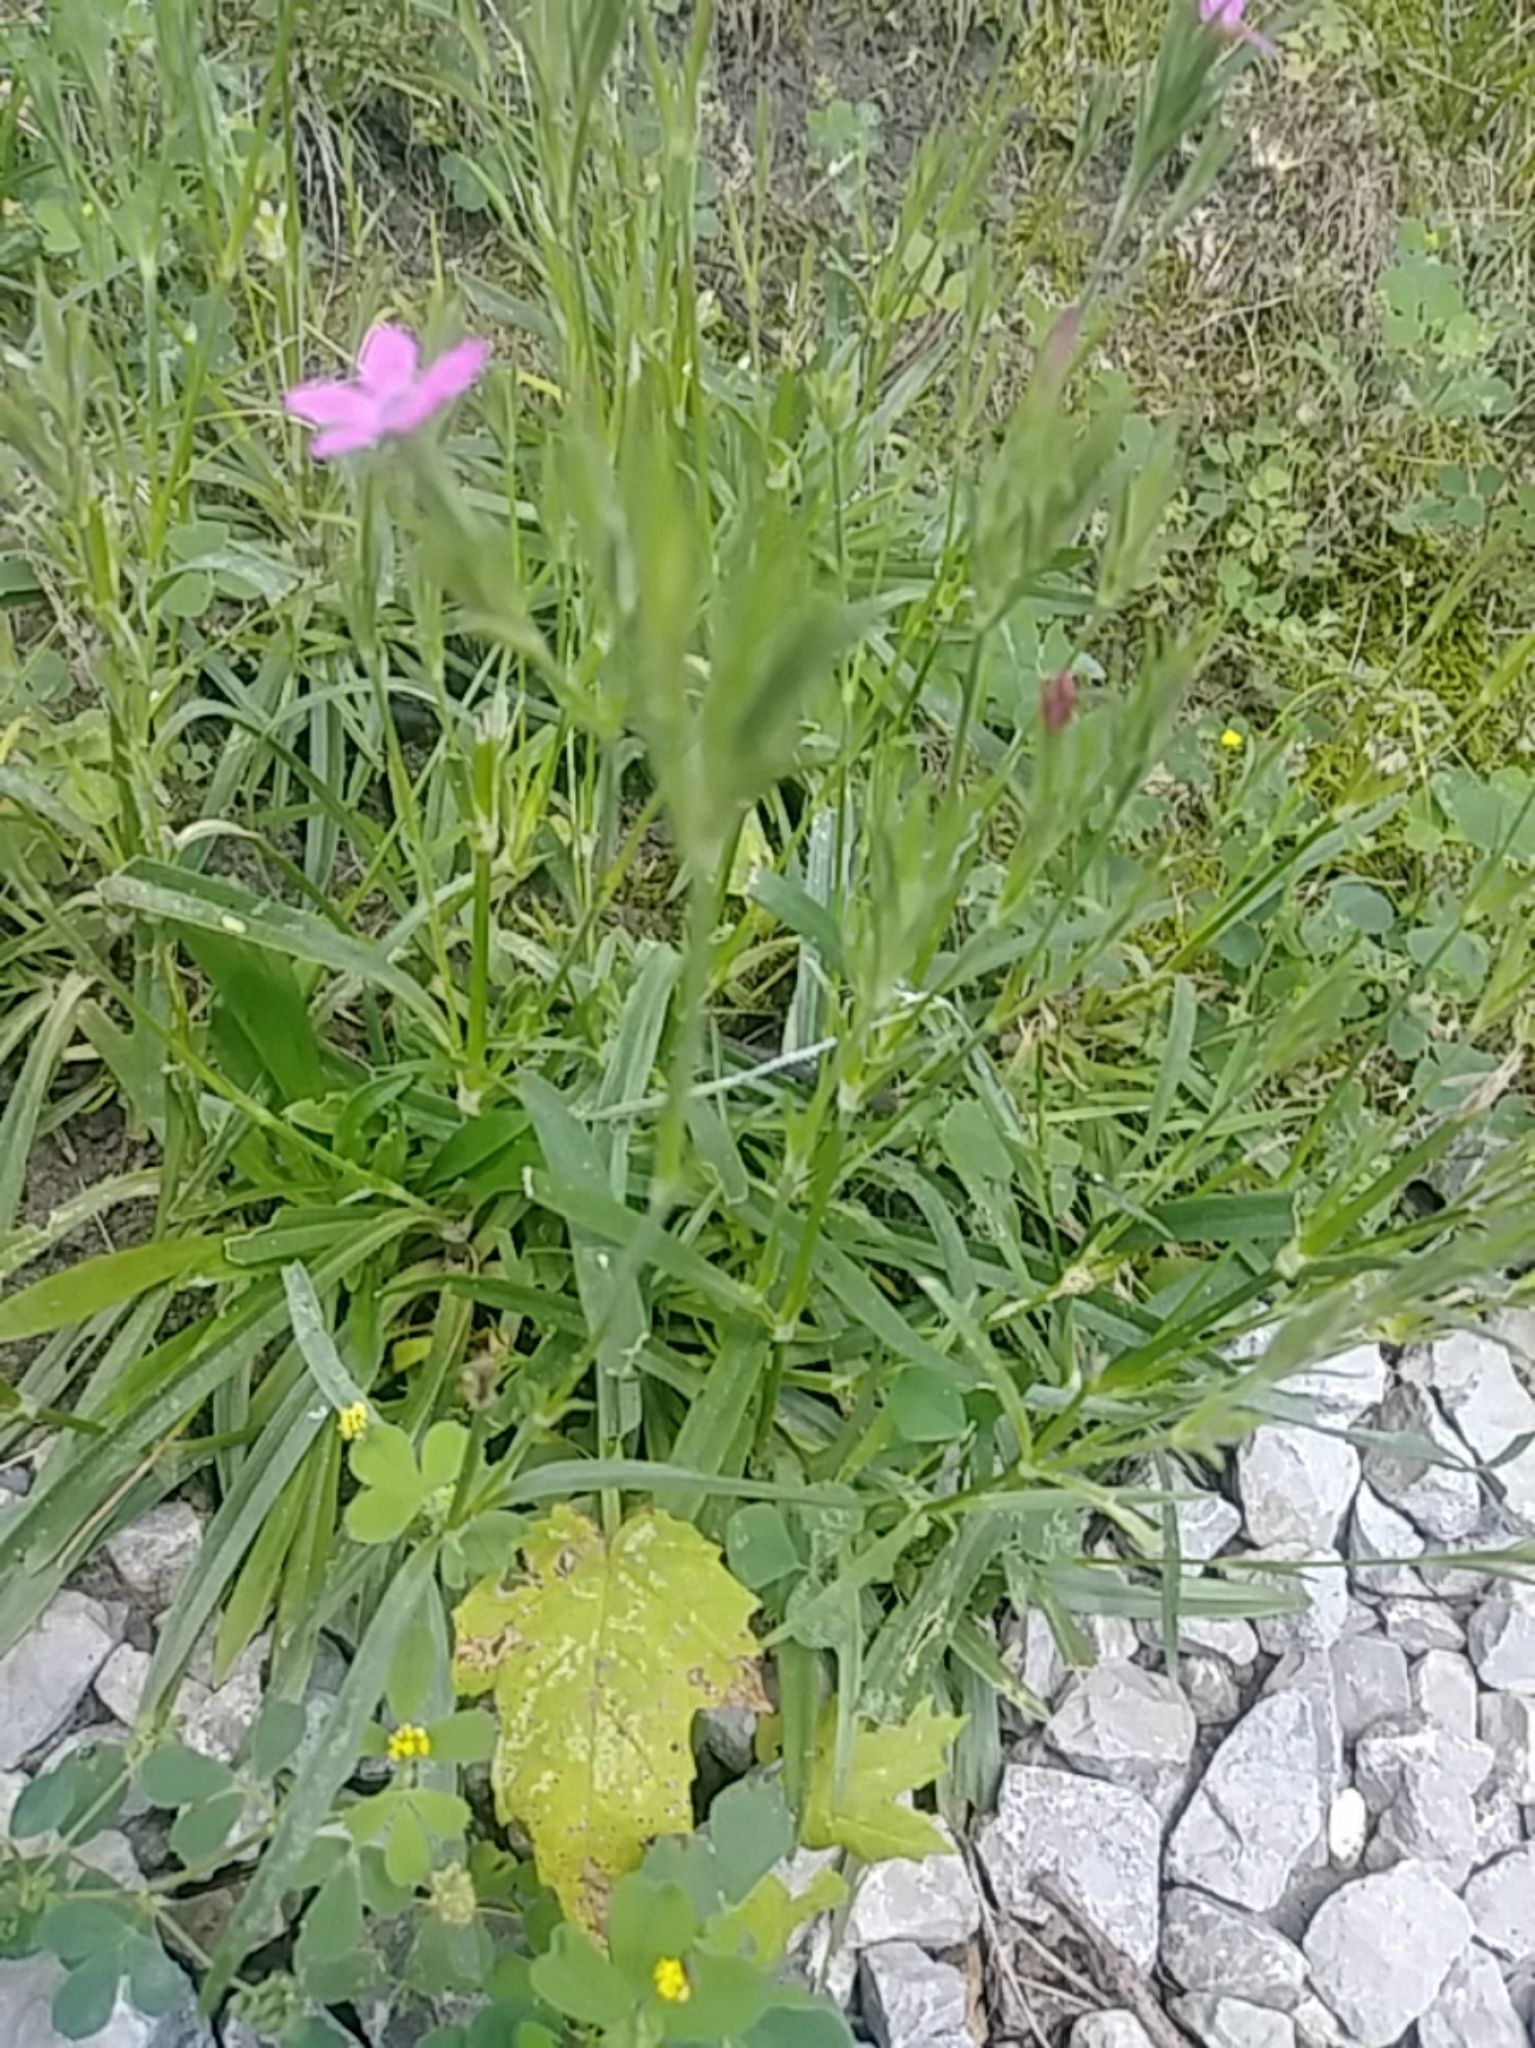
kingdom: Plantae
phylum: Tracheophyta
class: Magnoliopsida
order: Caryophyllales
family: Caryophyllaceae
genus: Dianthus
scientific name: Dianthus armeria
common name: Deptford pink
